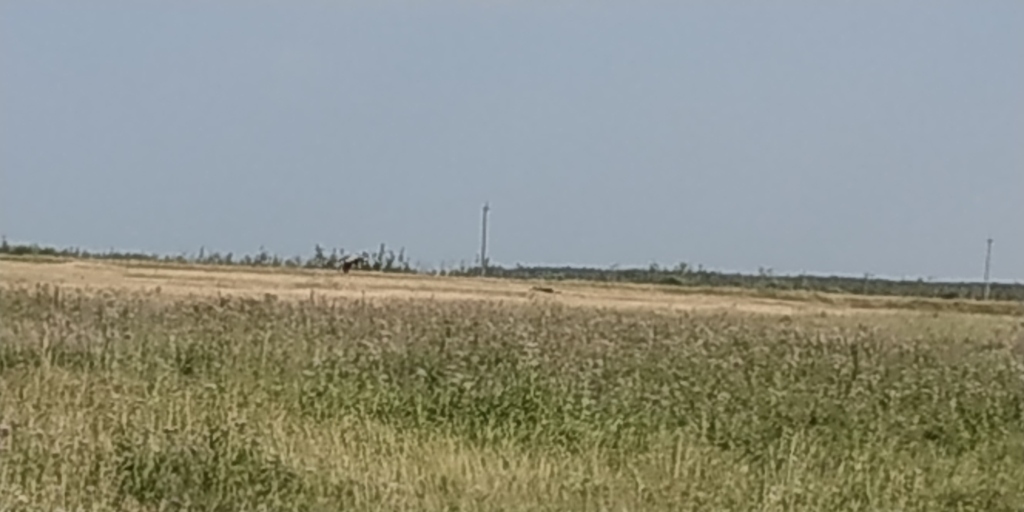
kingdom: Animalia
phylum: Chordata
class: Aves
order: Gruiformes
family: Gruidae
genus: Grus
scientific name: Grus grus
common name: Common crane
